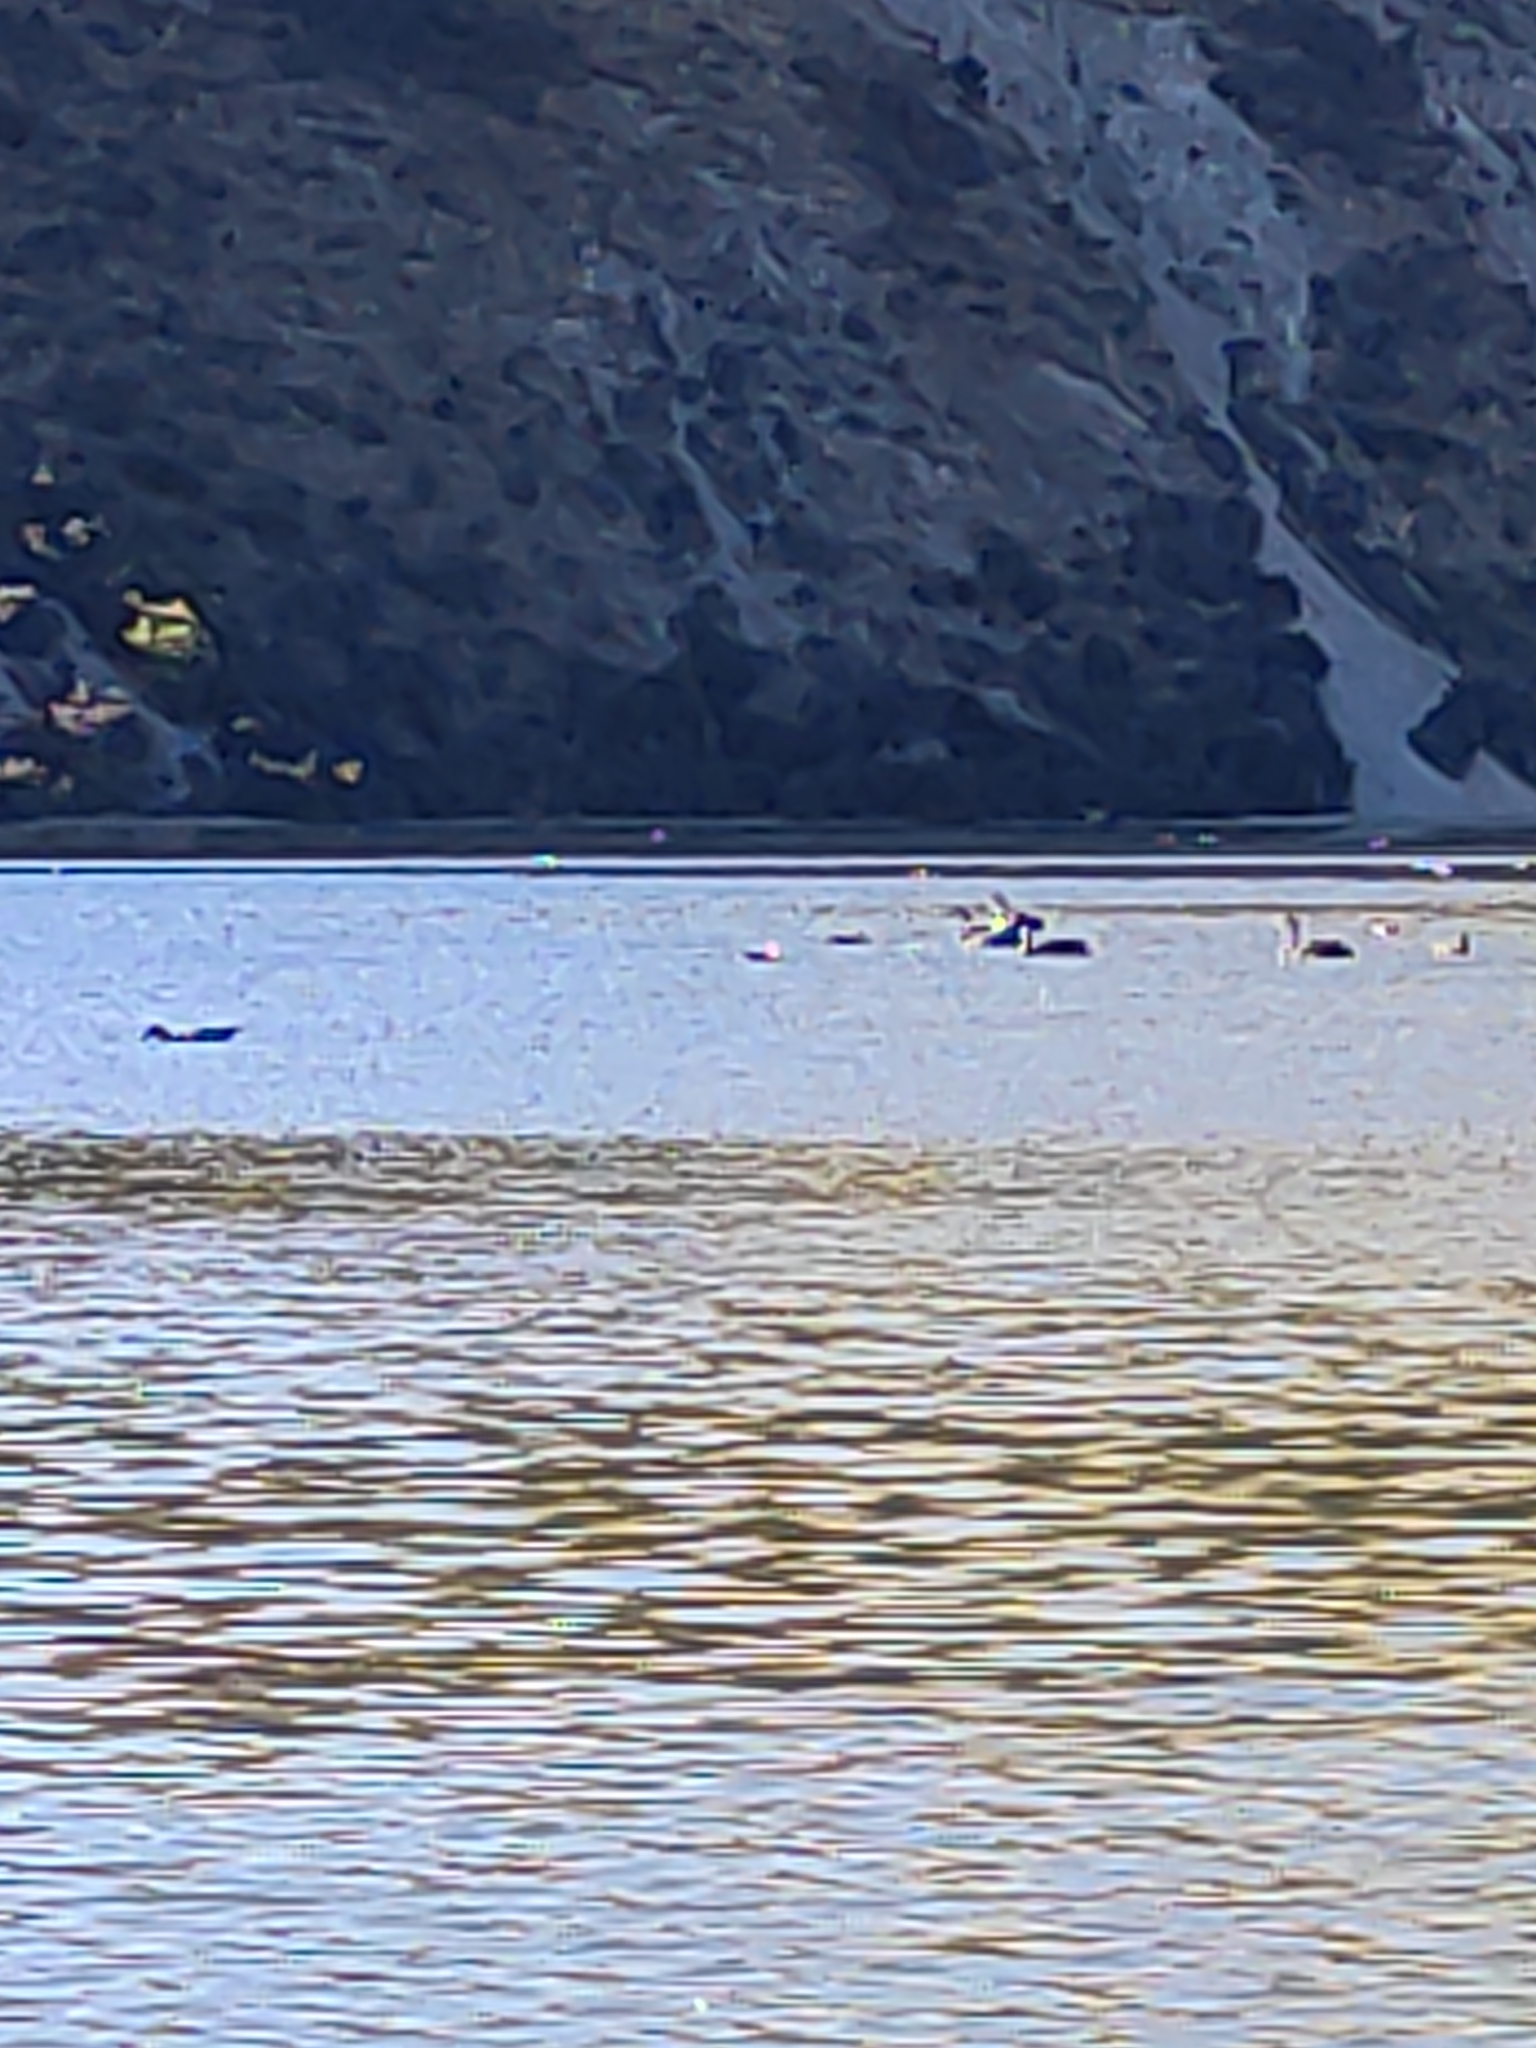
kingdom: Animalia
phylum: Chordata
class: Aves
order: Anseriformes
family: Anatidae
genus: Cygnus
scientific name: Cygnus atratus
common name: Black swan
